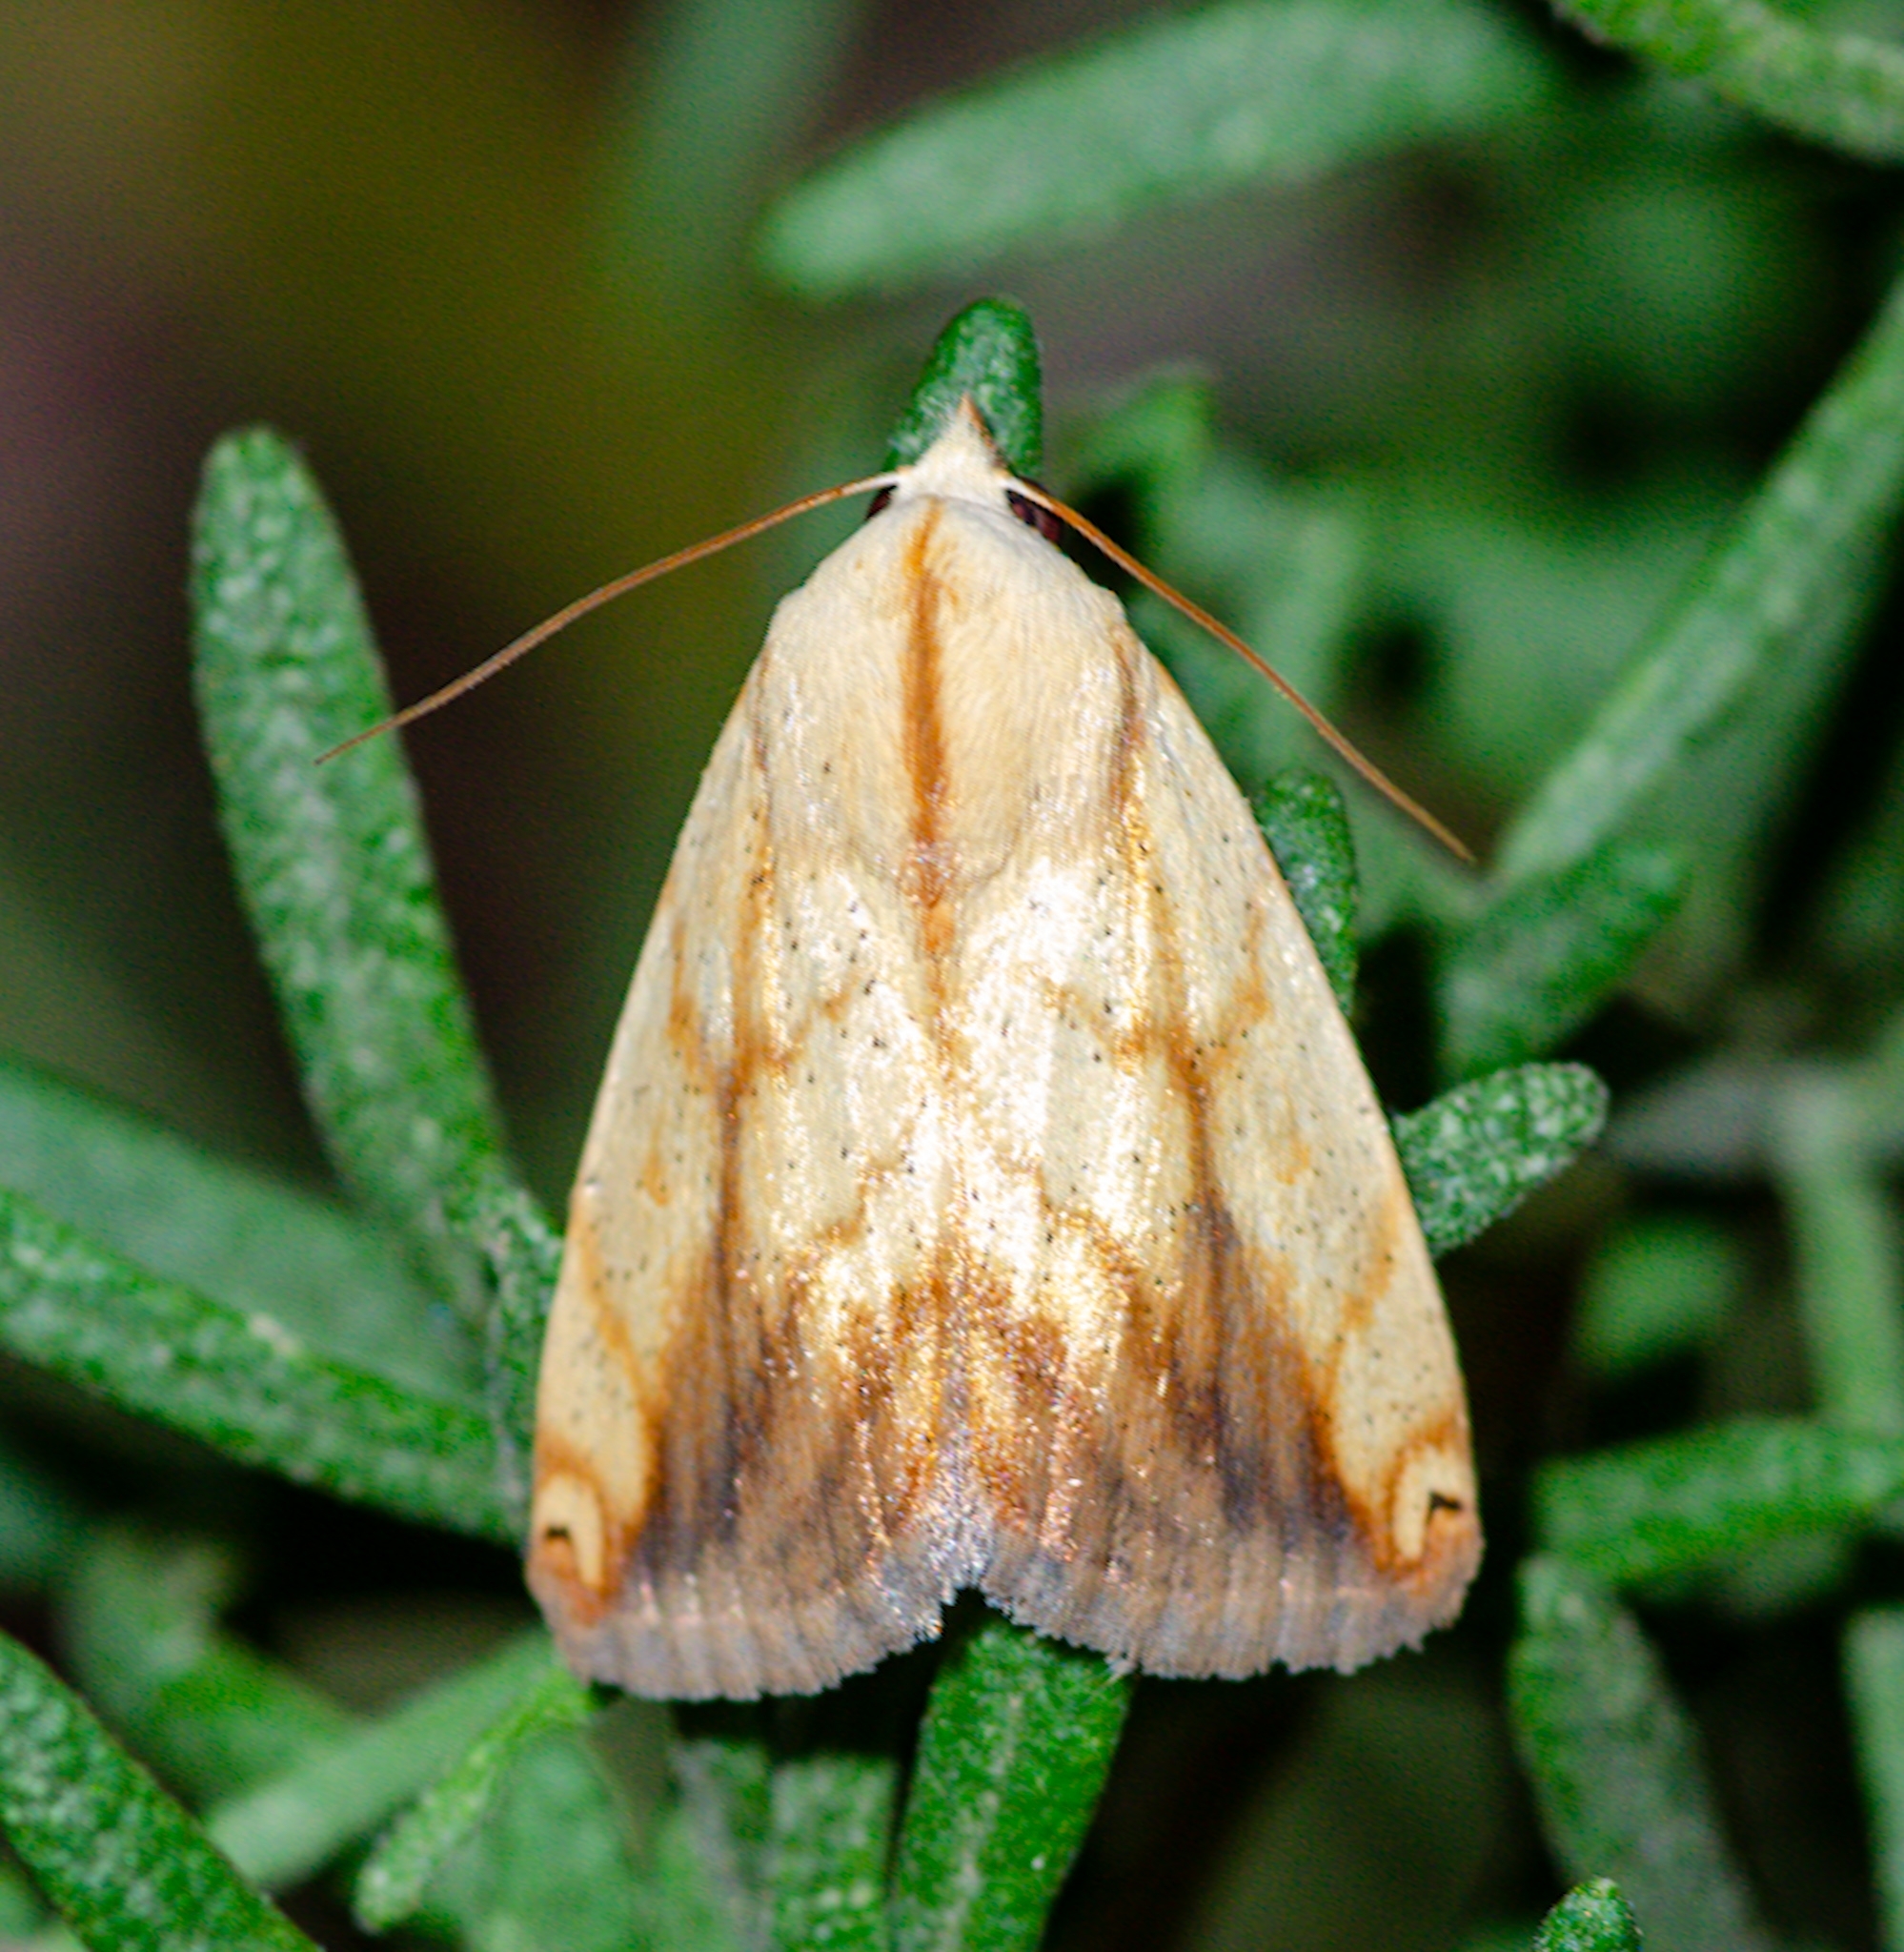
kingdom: Animalia
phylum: Arthropoda
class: Insecta
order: Lepidoptera
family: Nolidae
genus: Xanthodes
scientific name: Xanthodes transversa
